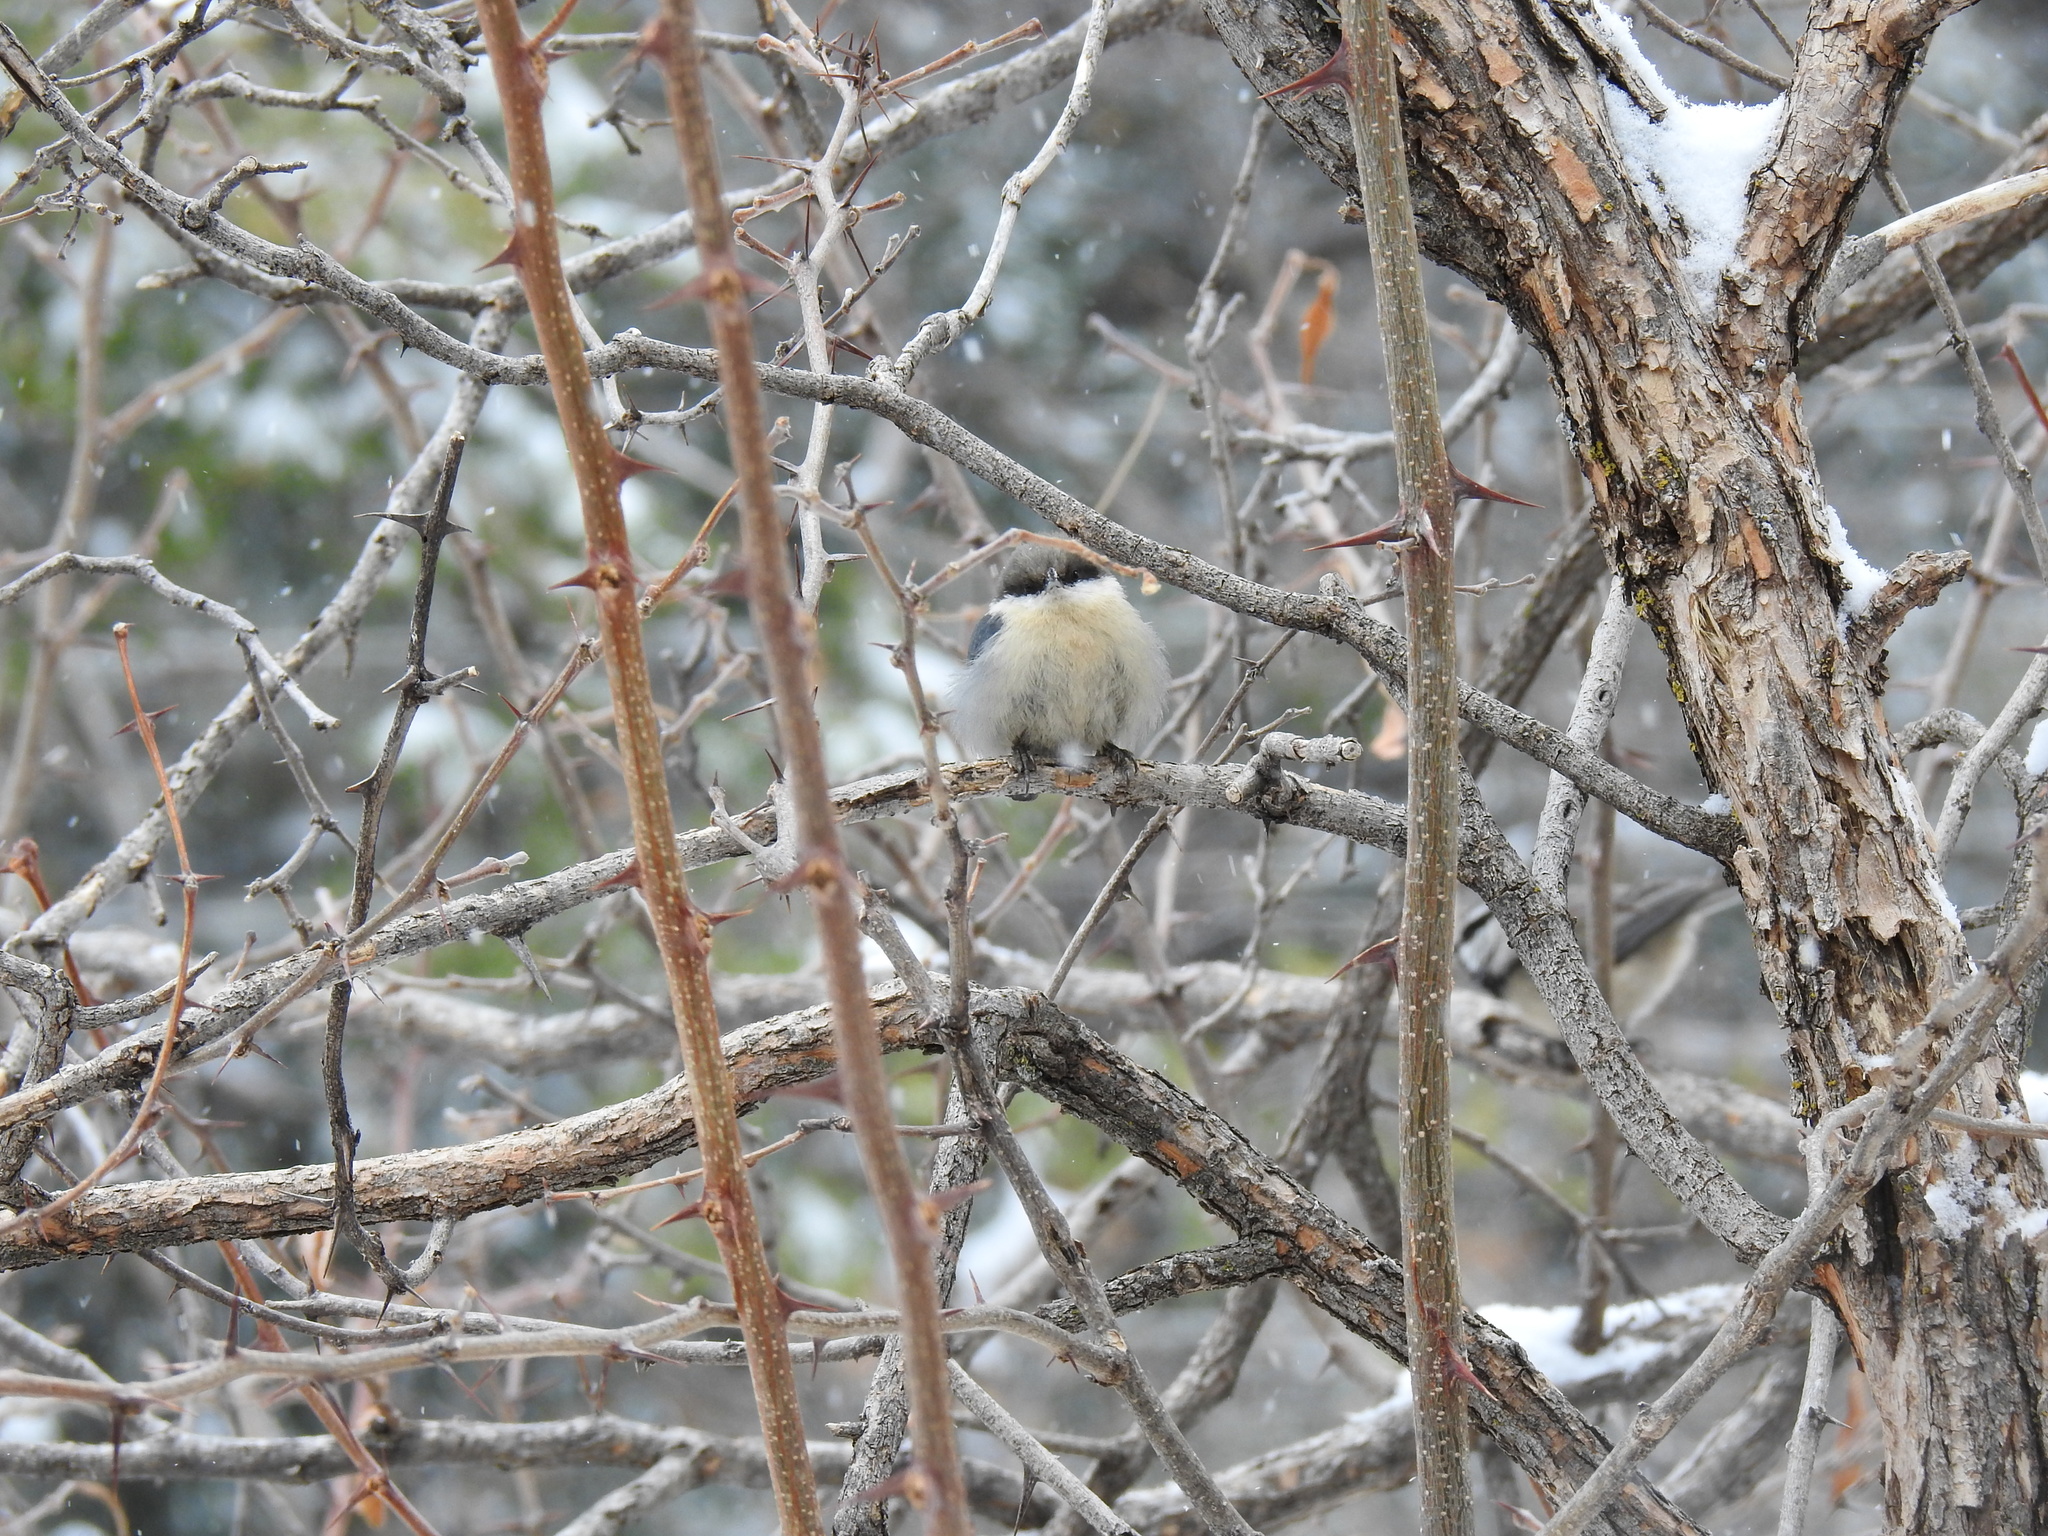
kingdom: Animalia
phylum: Chordata
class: Aves
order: Passeriformes
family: Sittidae
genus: Sitta
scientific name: Sitta pygmaea
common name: Pygmy nuthatch
